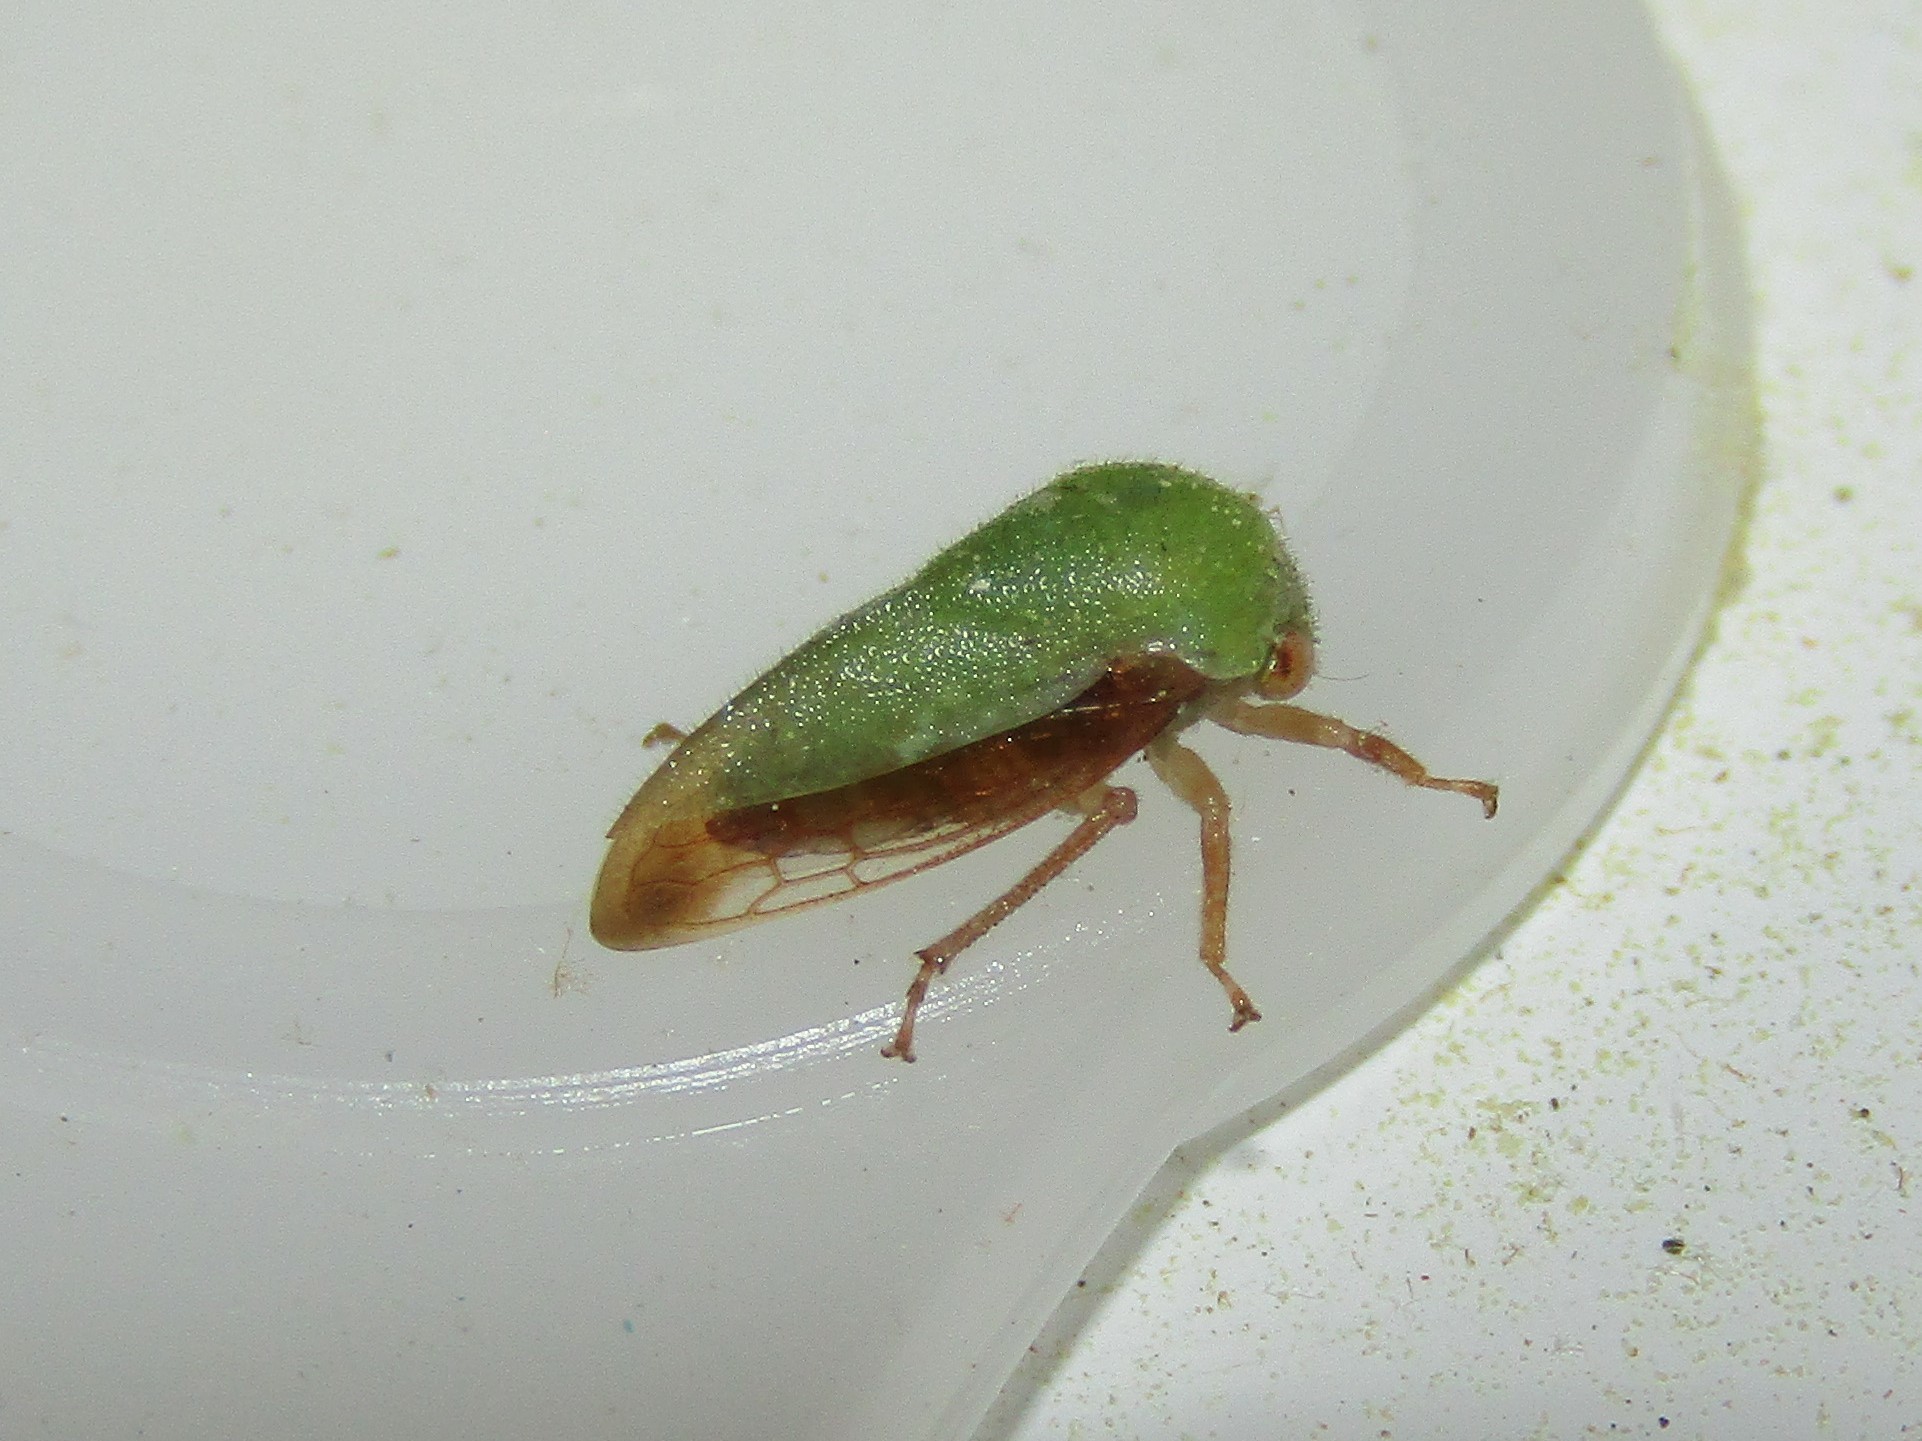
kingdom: Animalia
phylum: Arthropoda
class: Insecta
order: Hemiptera
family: Membracidae
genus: Ophiderma
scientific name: Ophiderma evelyna
